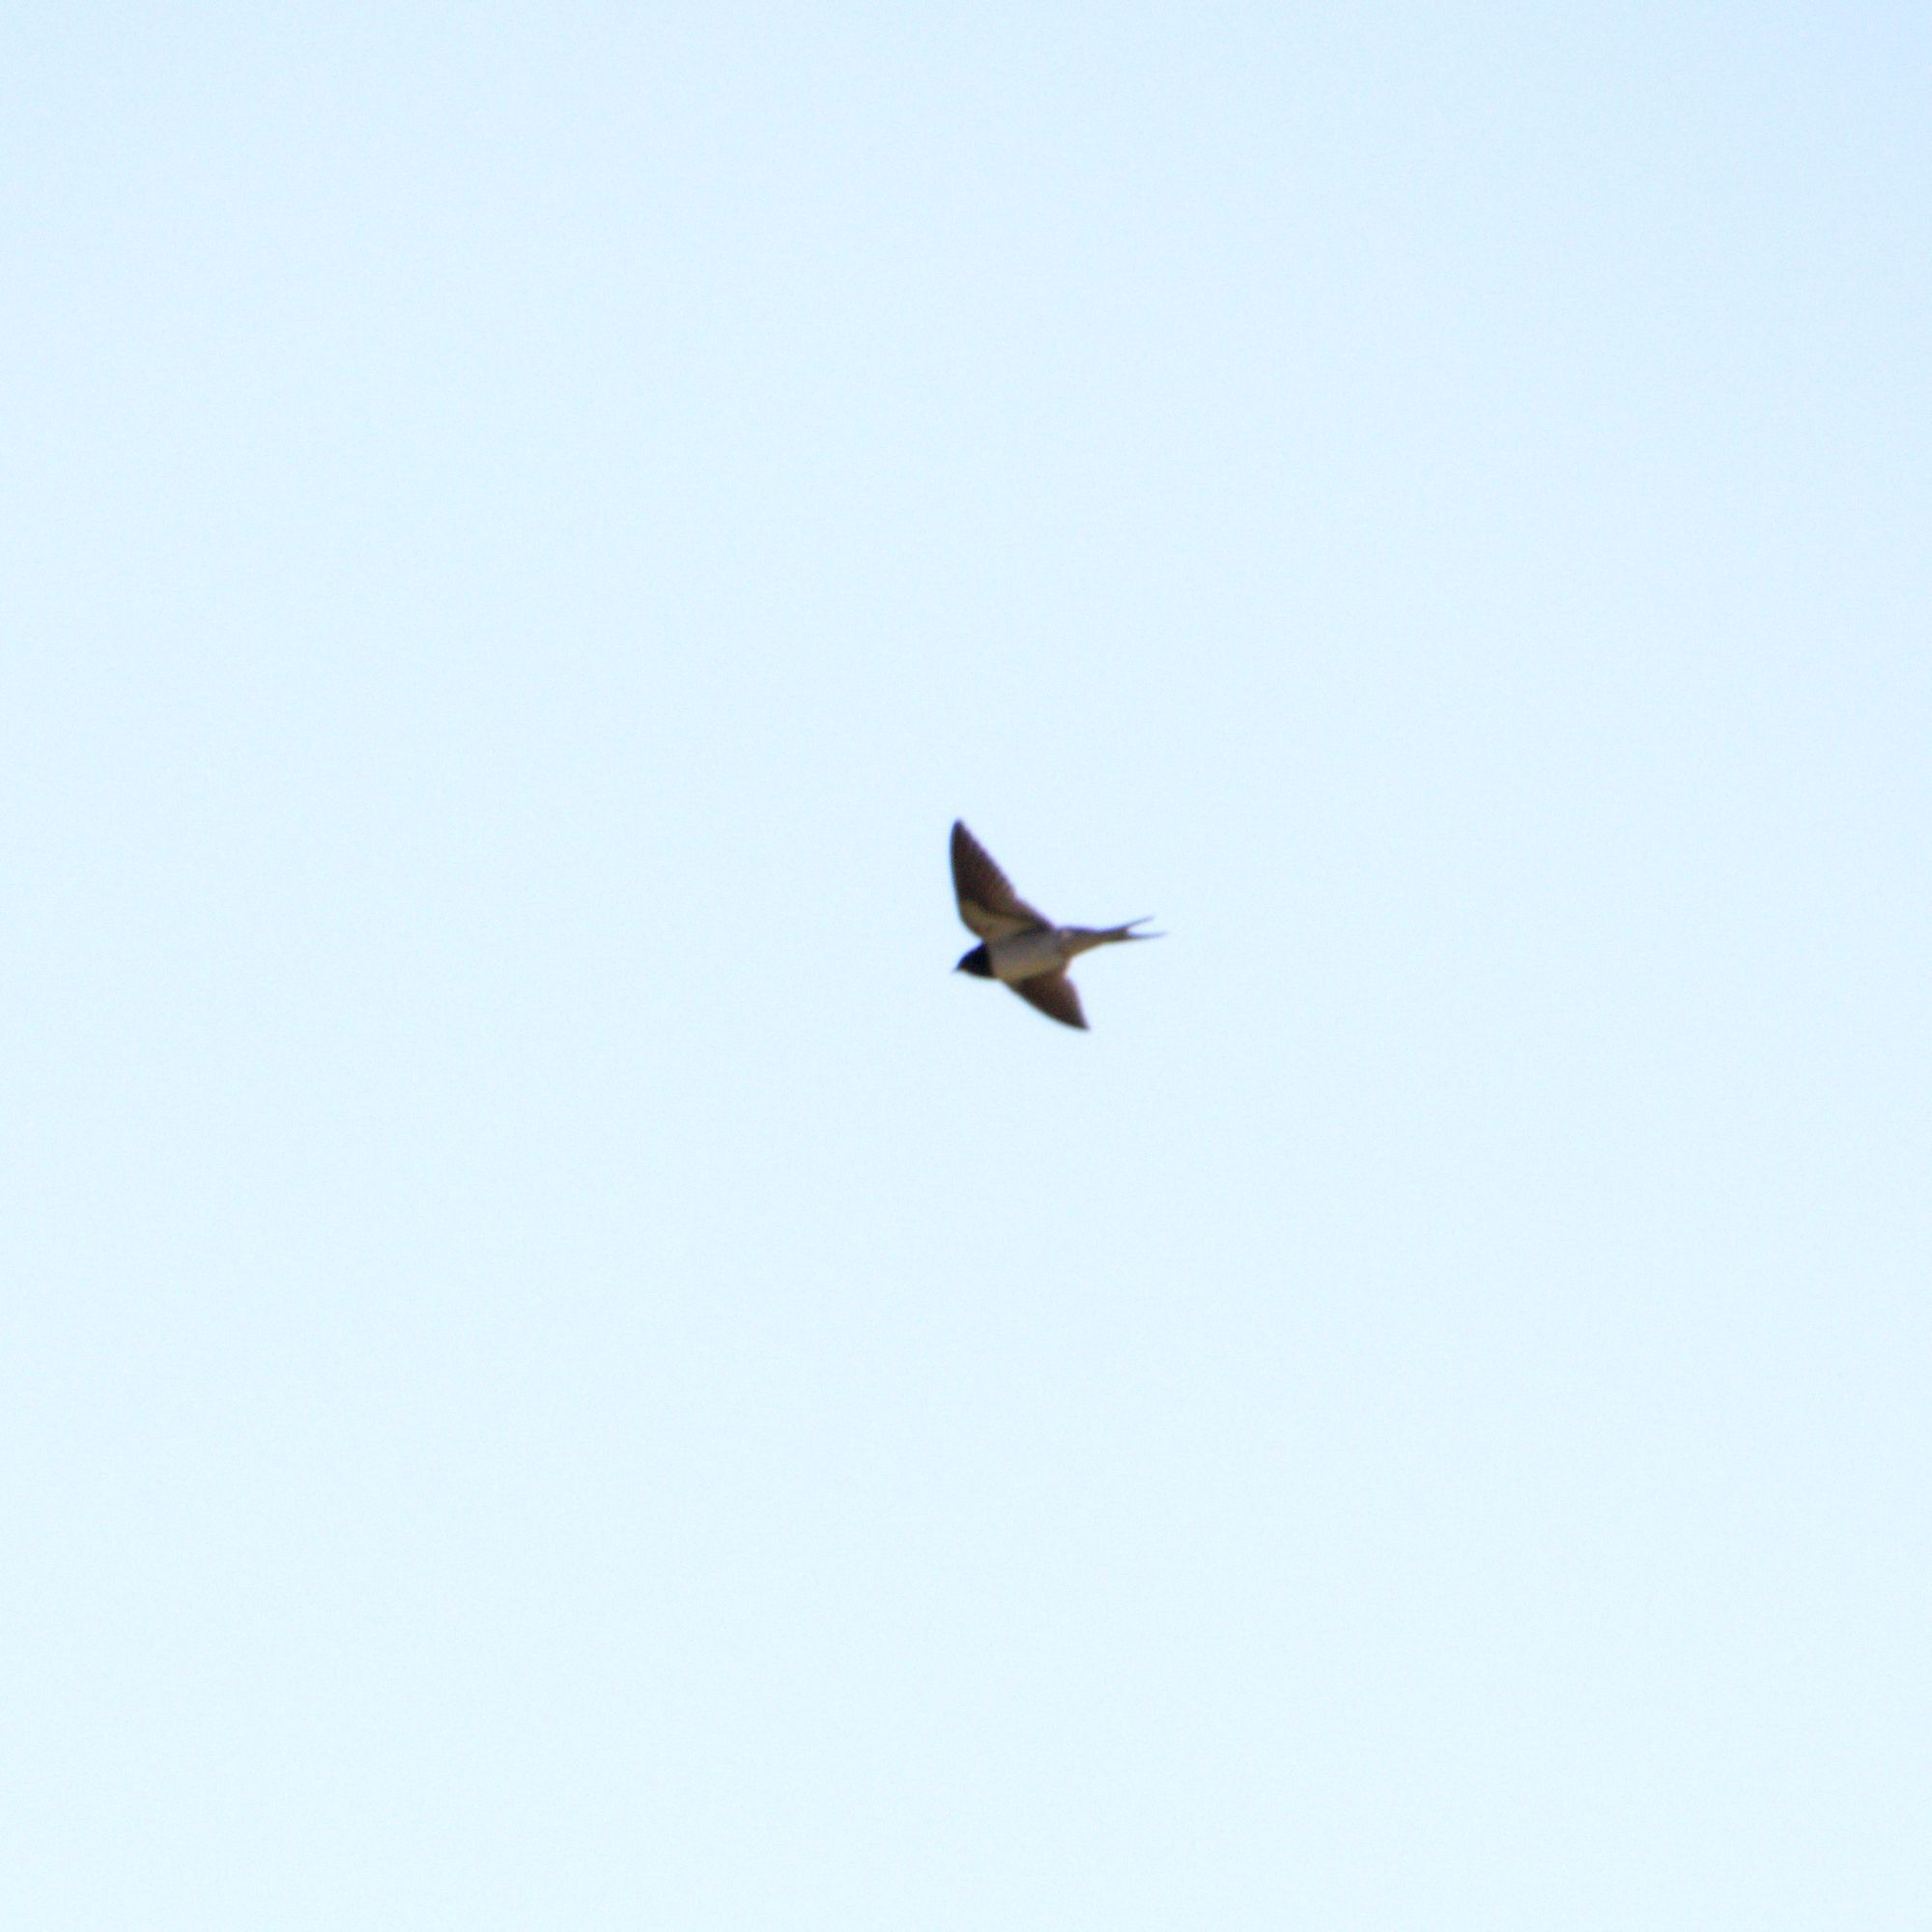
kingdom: Animalia
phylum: Chordata
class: Aves
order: Passeriformes
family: Hirundinidae
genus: Hirundo
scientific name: Hirundo rustica
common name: Barn swallow
